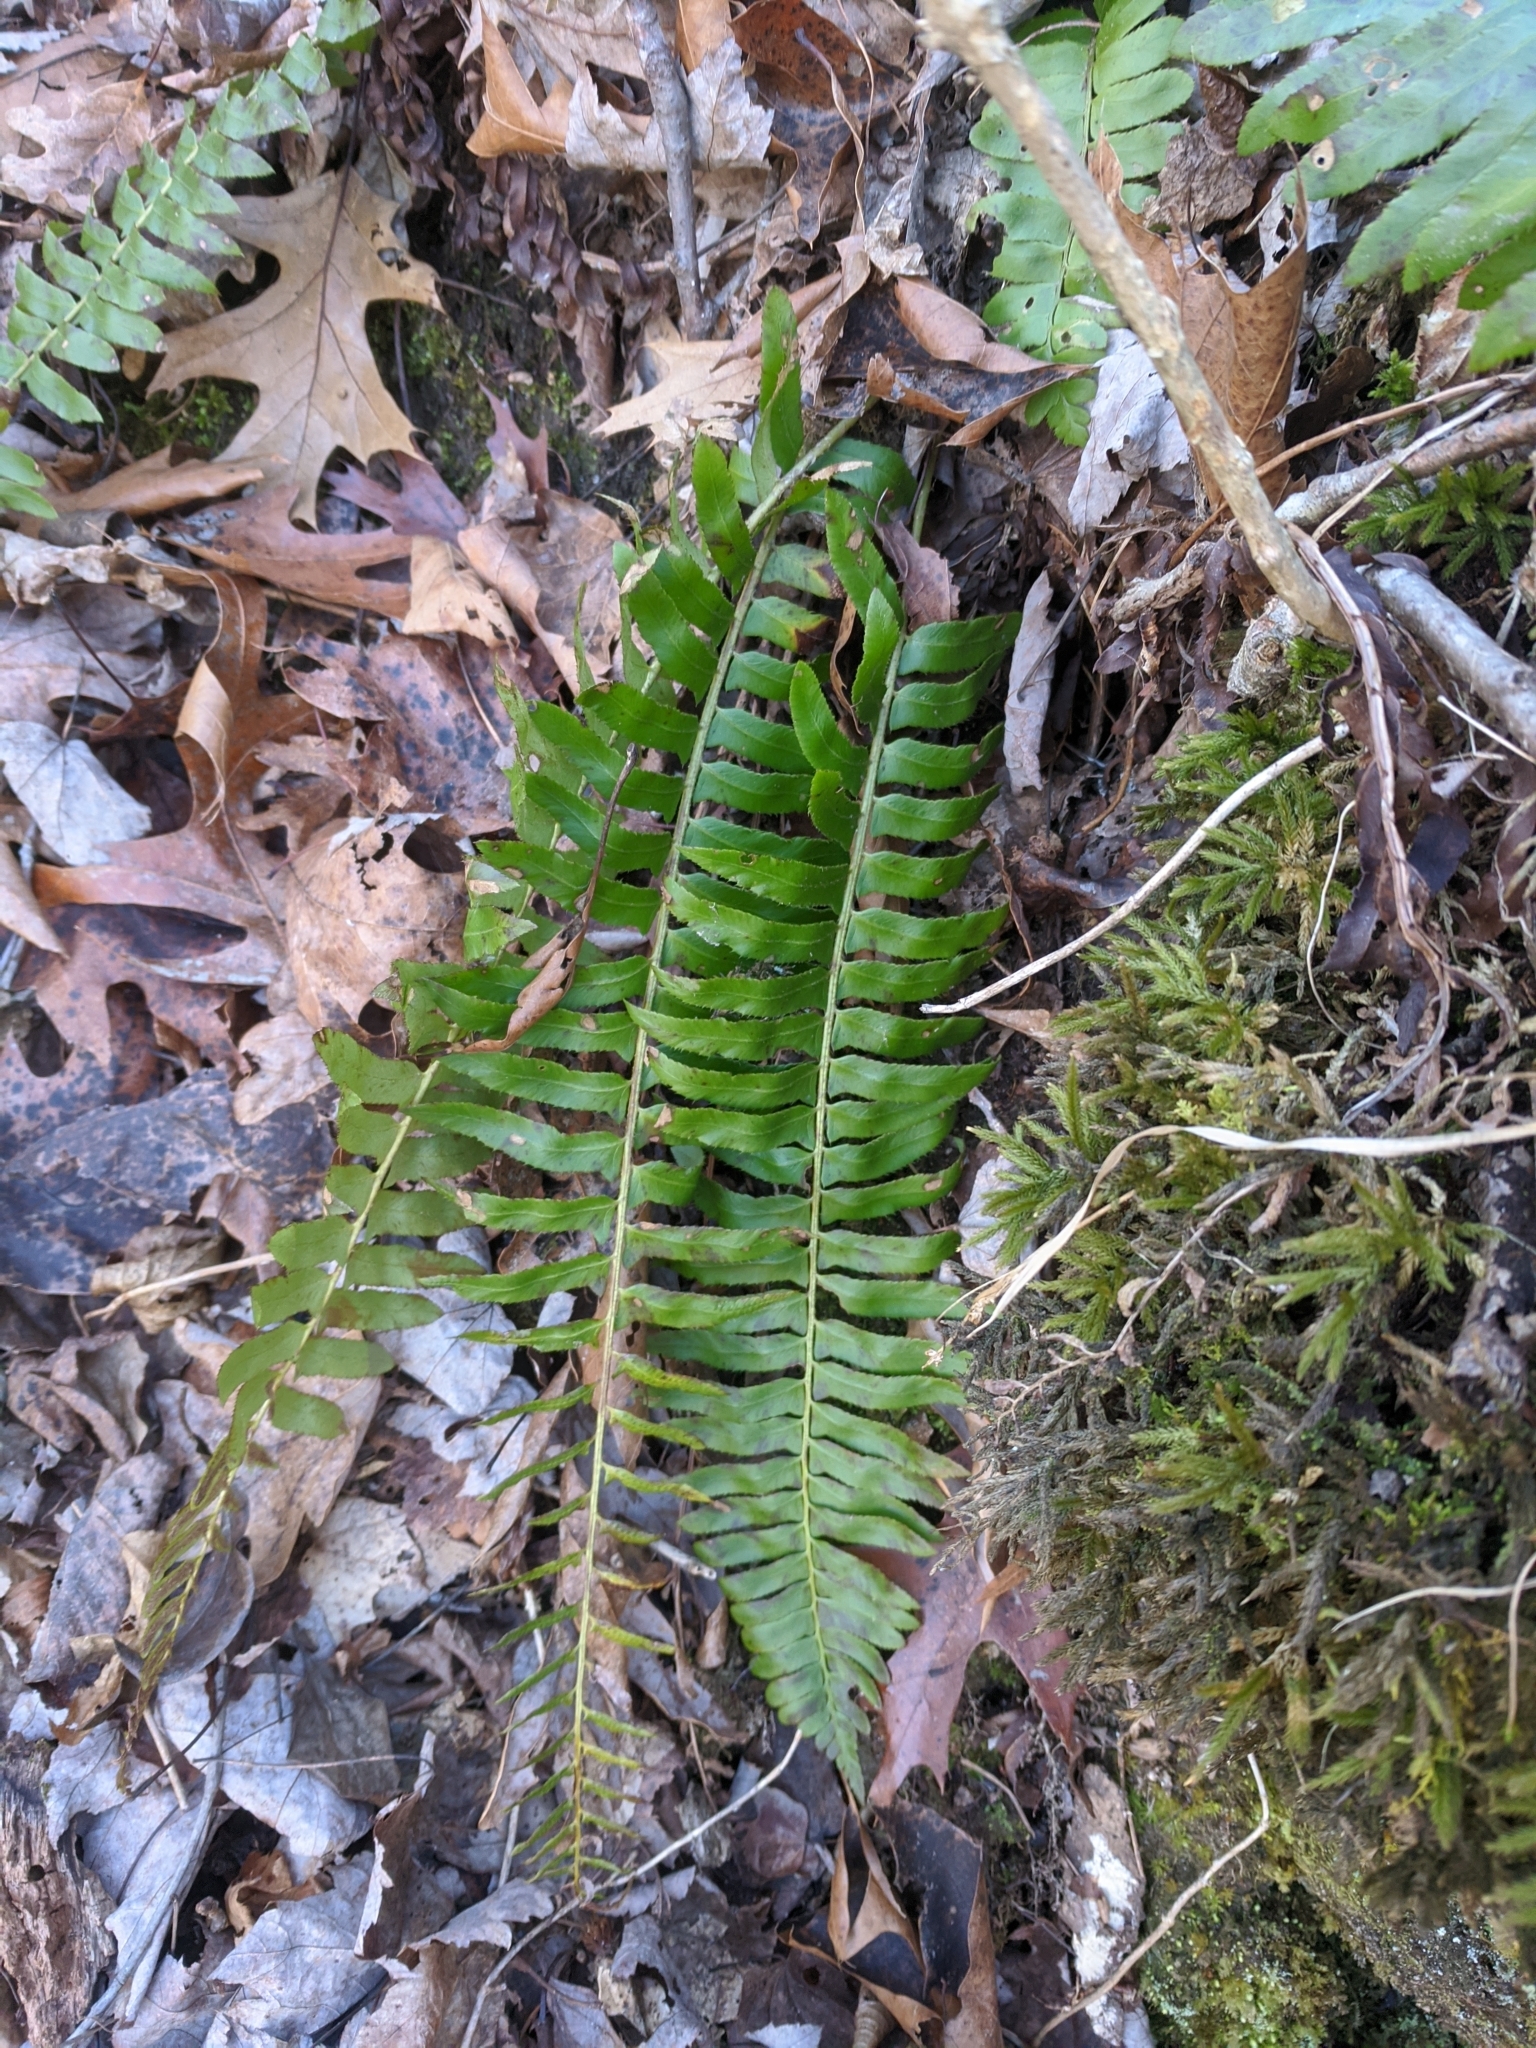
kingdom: Plantae
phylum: Tracheophyta
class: Polypodiopsida
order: Polypodiales
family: Dryopteridaceae
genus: Polystichum
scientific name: Polystichum acrostichoides
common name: Christmas fern
